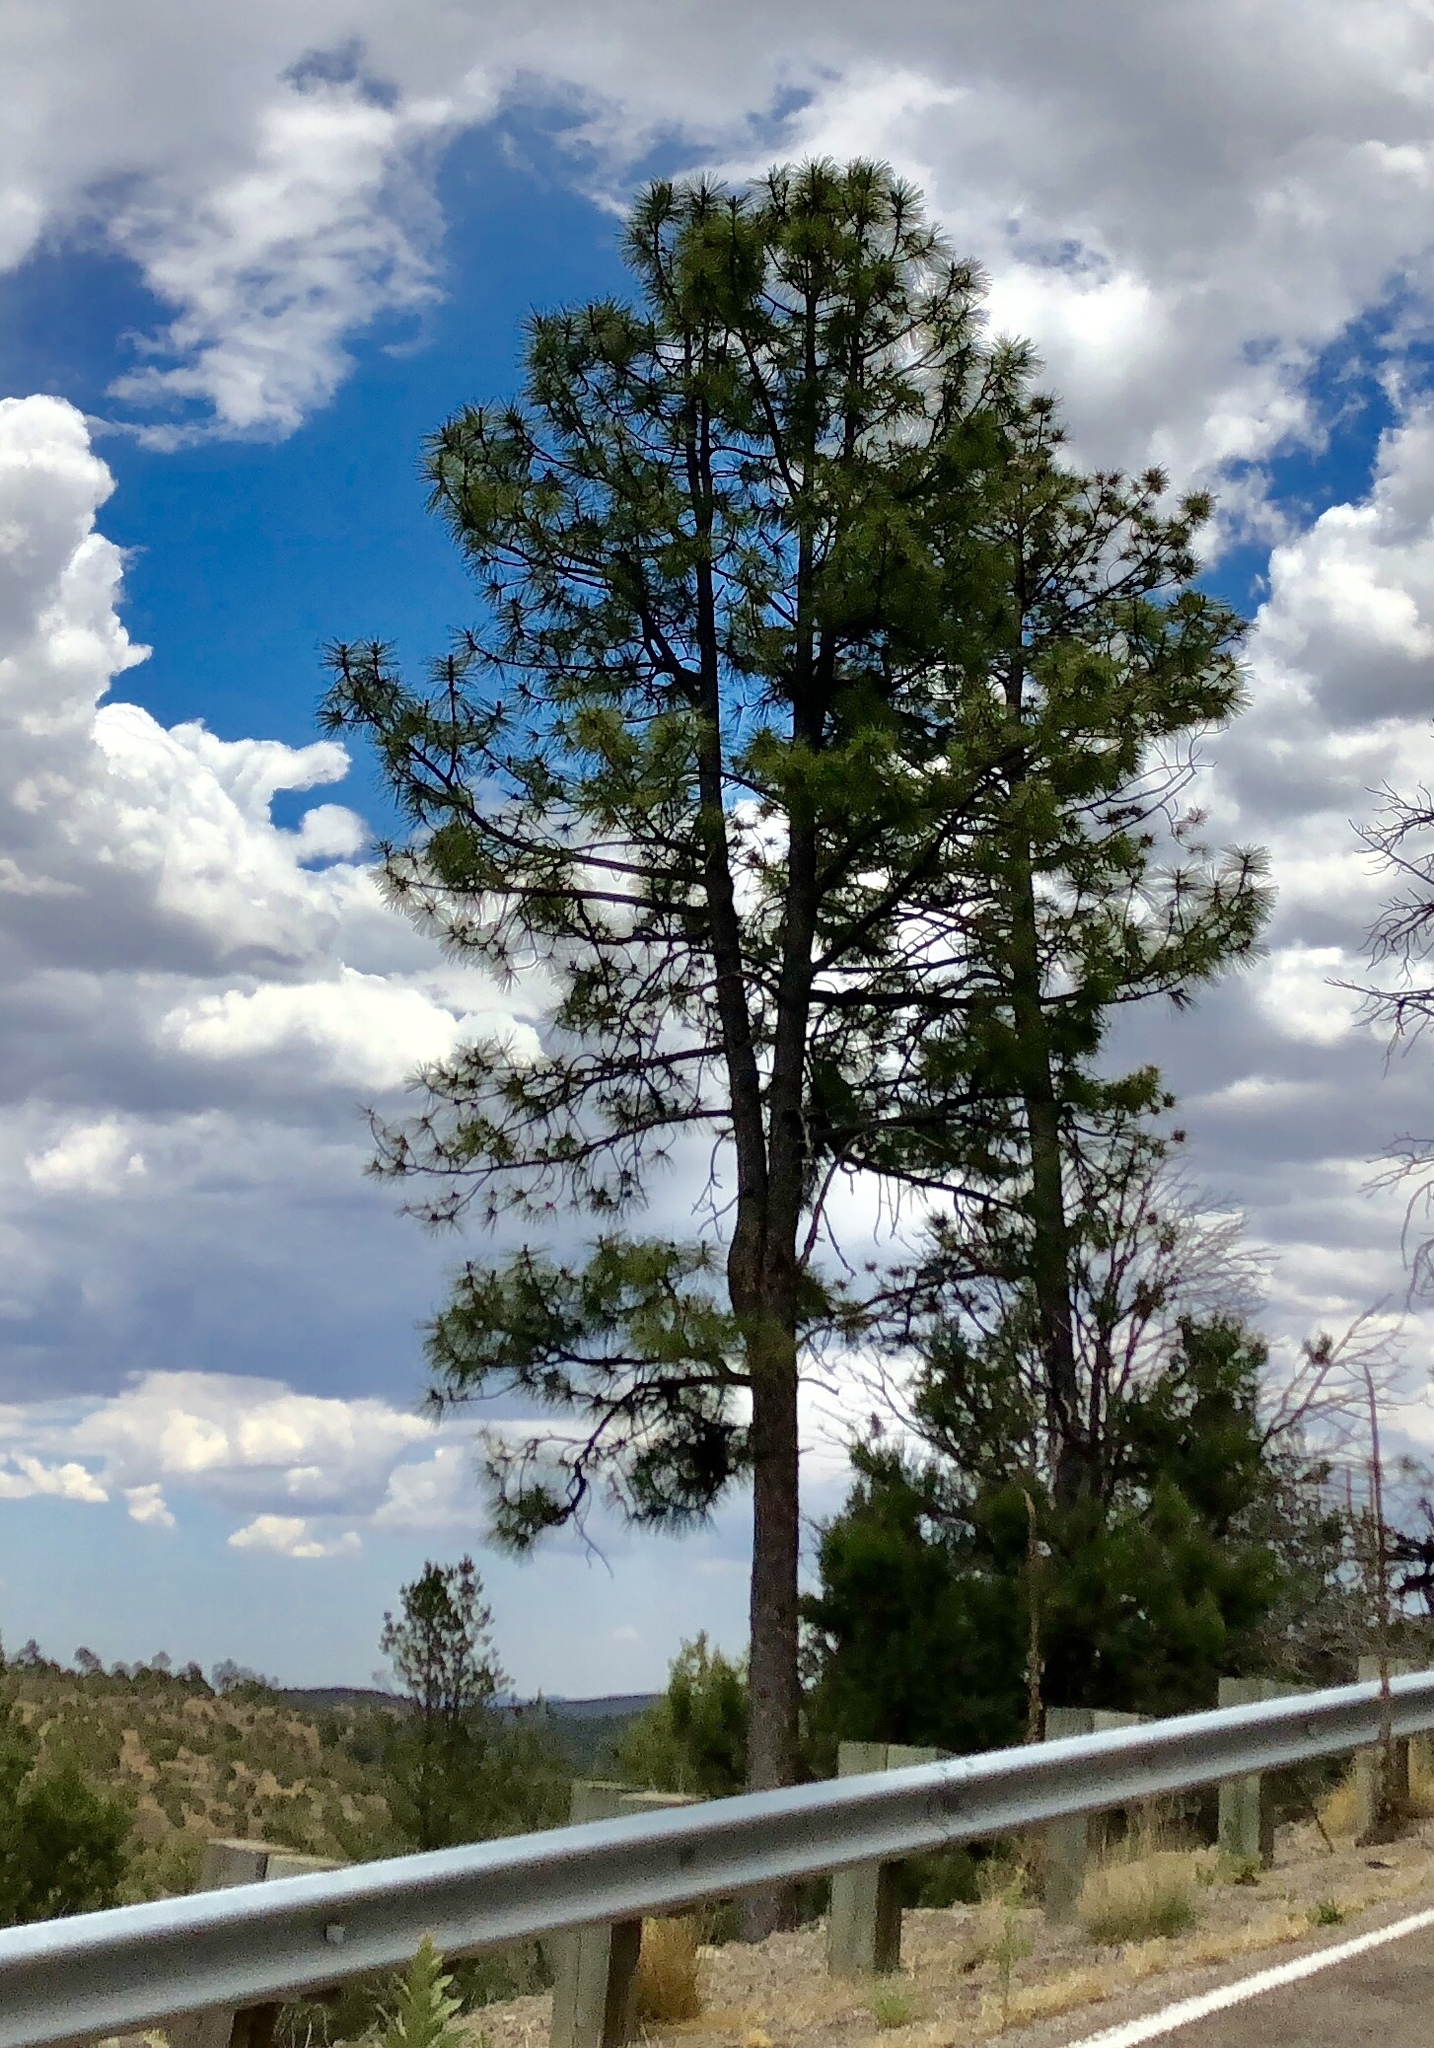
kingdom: Plantae
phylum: Tracheophyta
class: Pinopsida
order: Pinales
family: Pinaceae
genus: Pinus
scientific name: Pinus ponderosa
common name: Western yellow-pine
